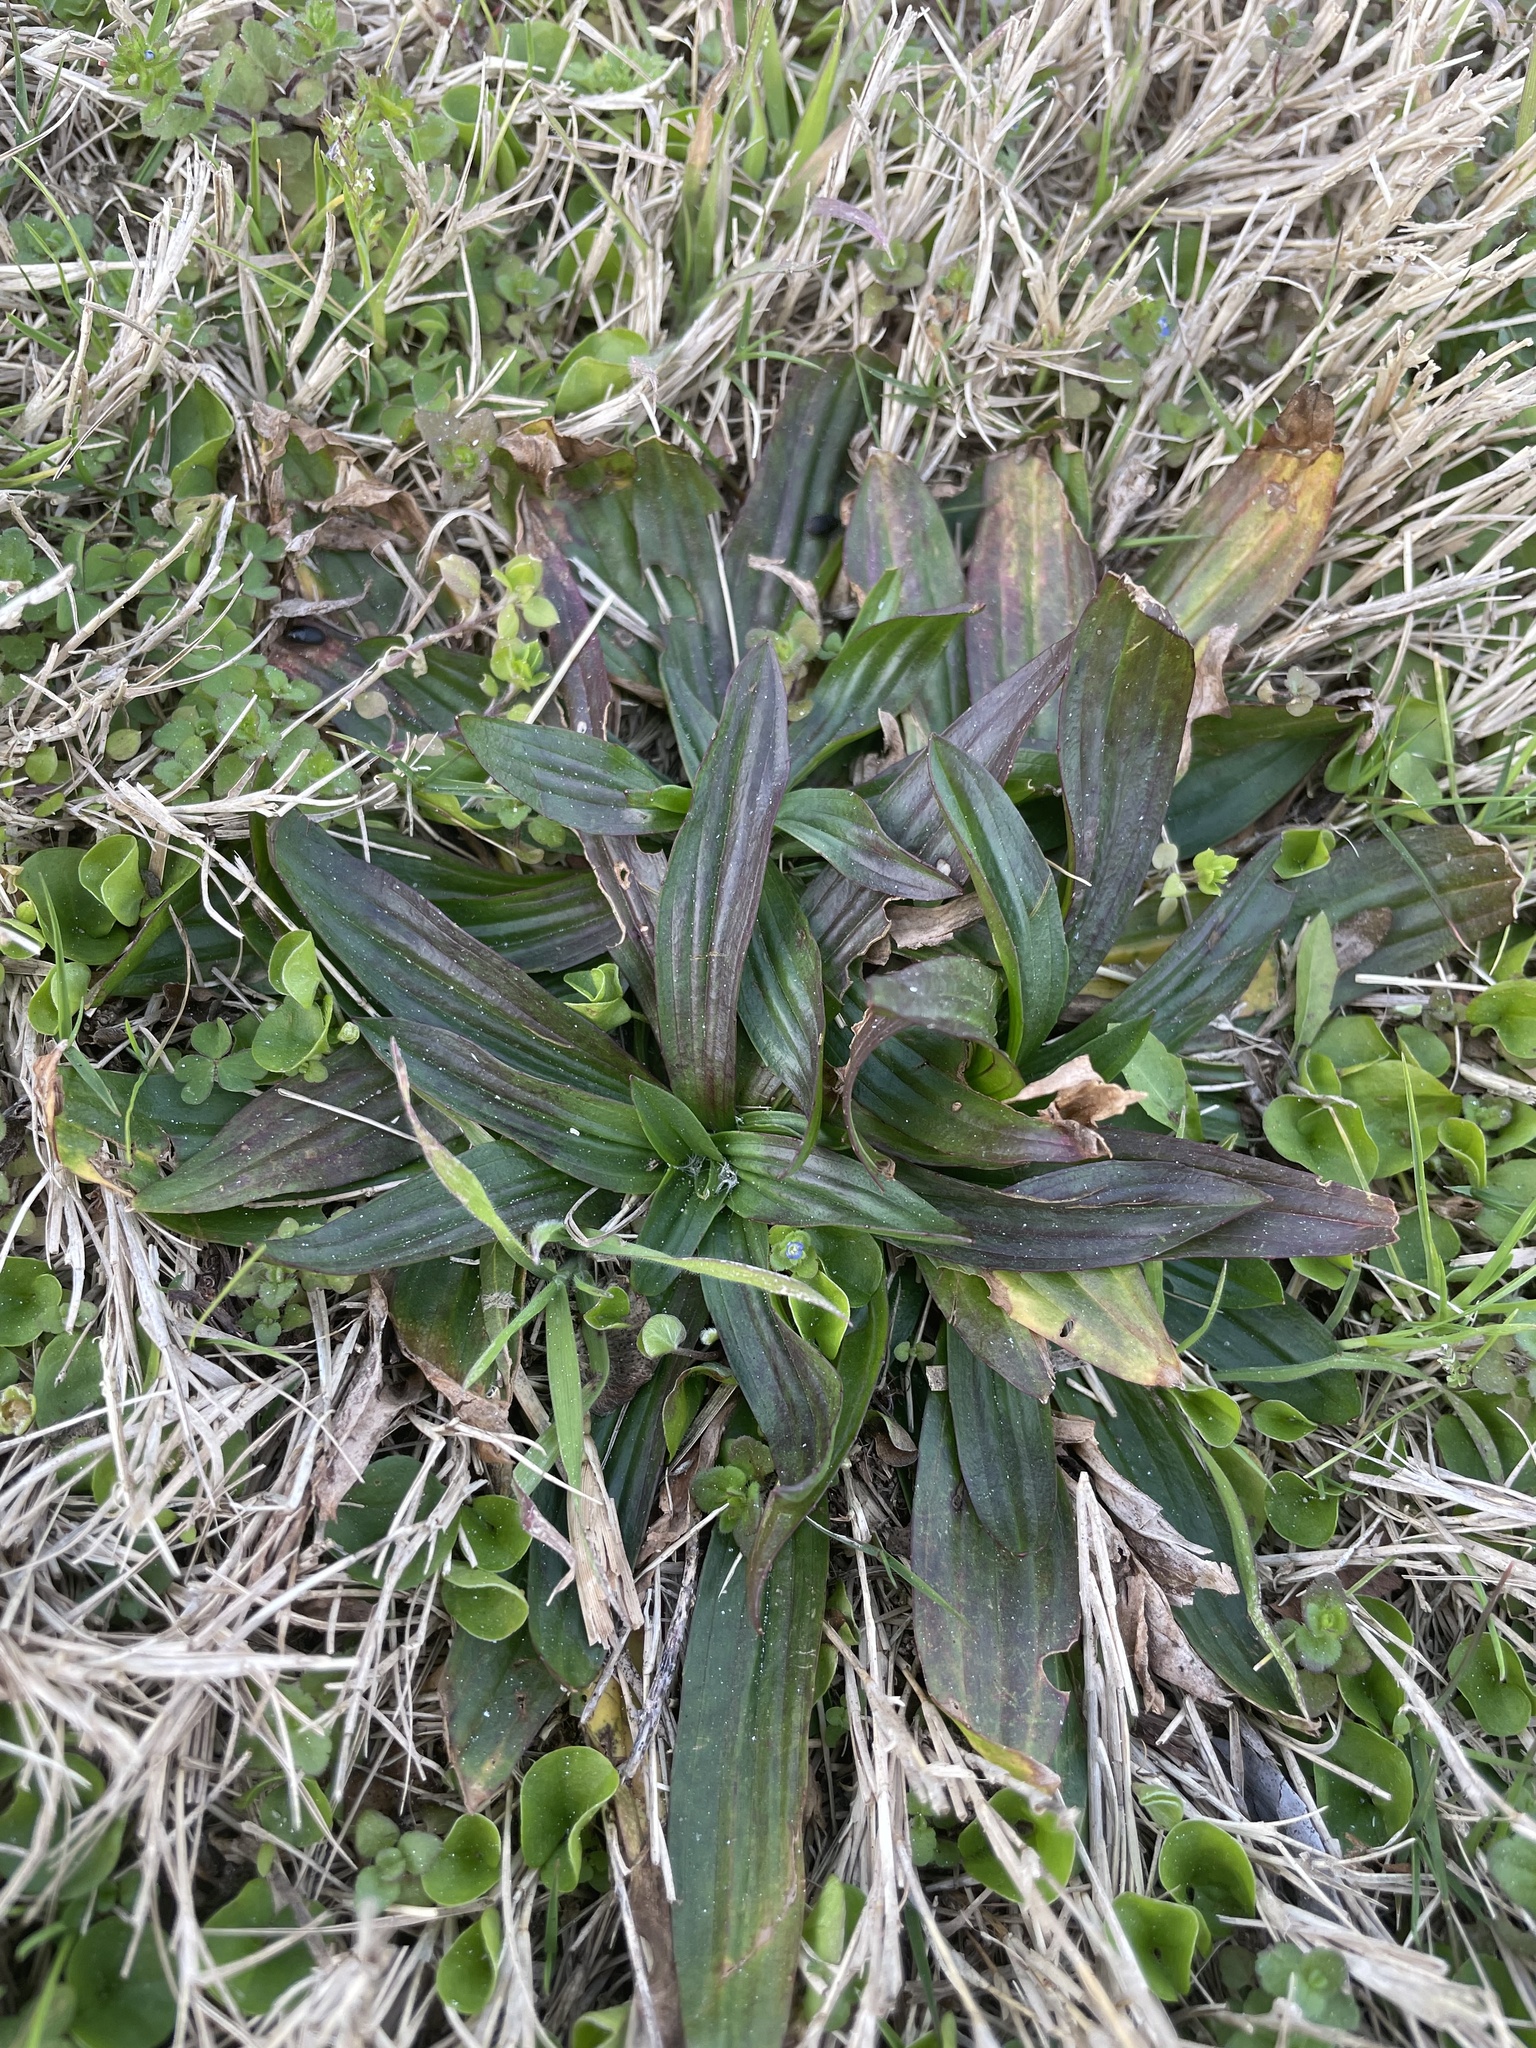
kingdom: Plantae
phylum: Tracheophyta
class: Magnoliopsida
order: Lamiales
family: Plantaginaceae
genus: Plantago
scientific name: Plantago lanceolata
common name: Ribwort plantain
